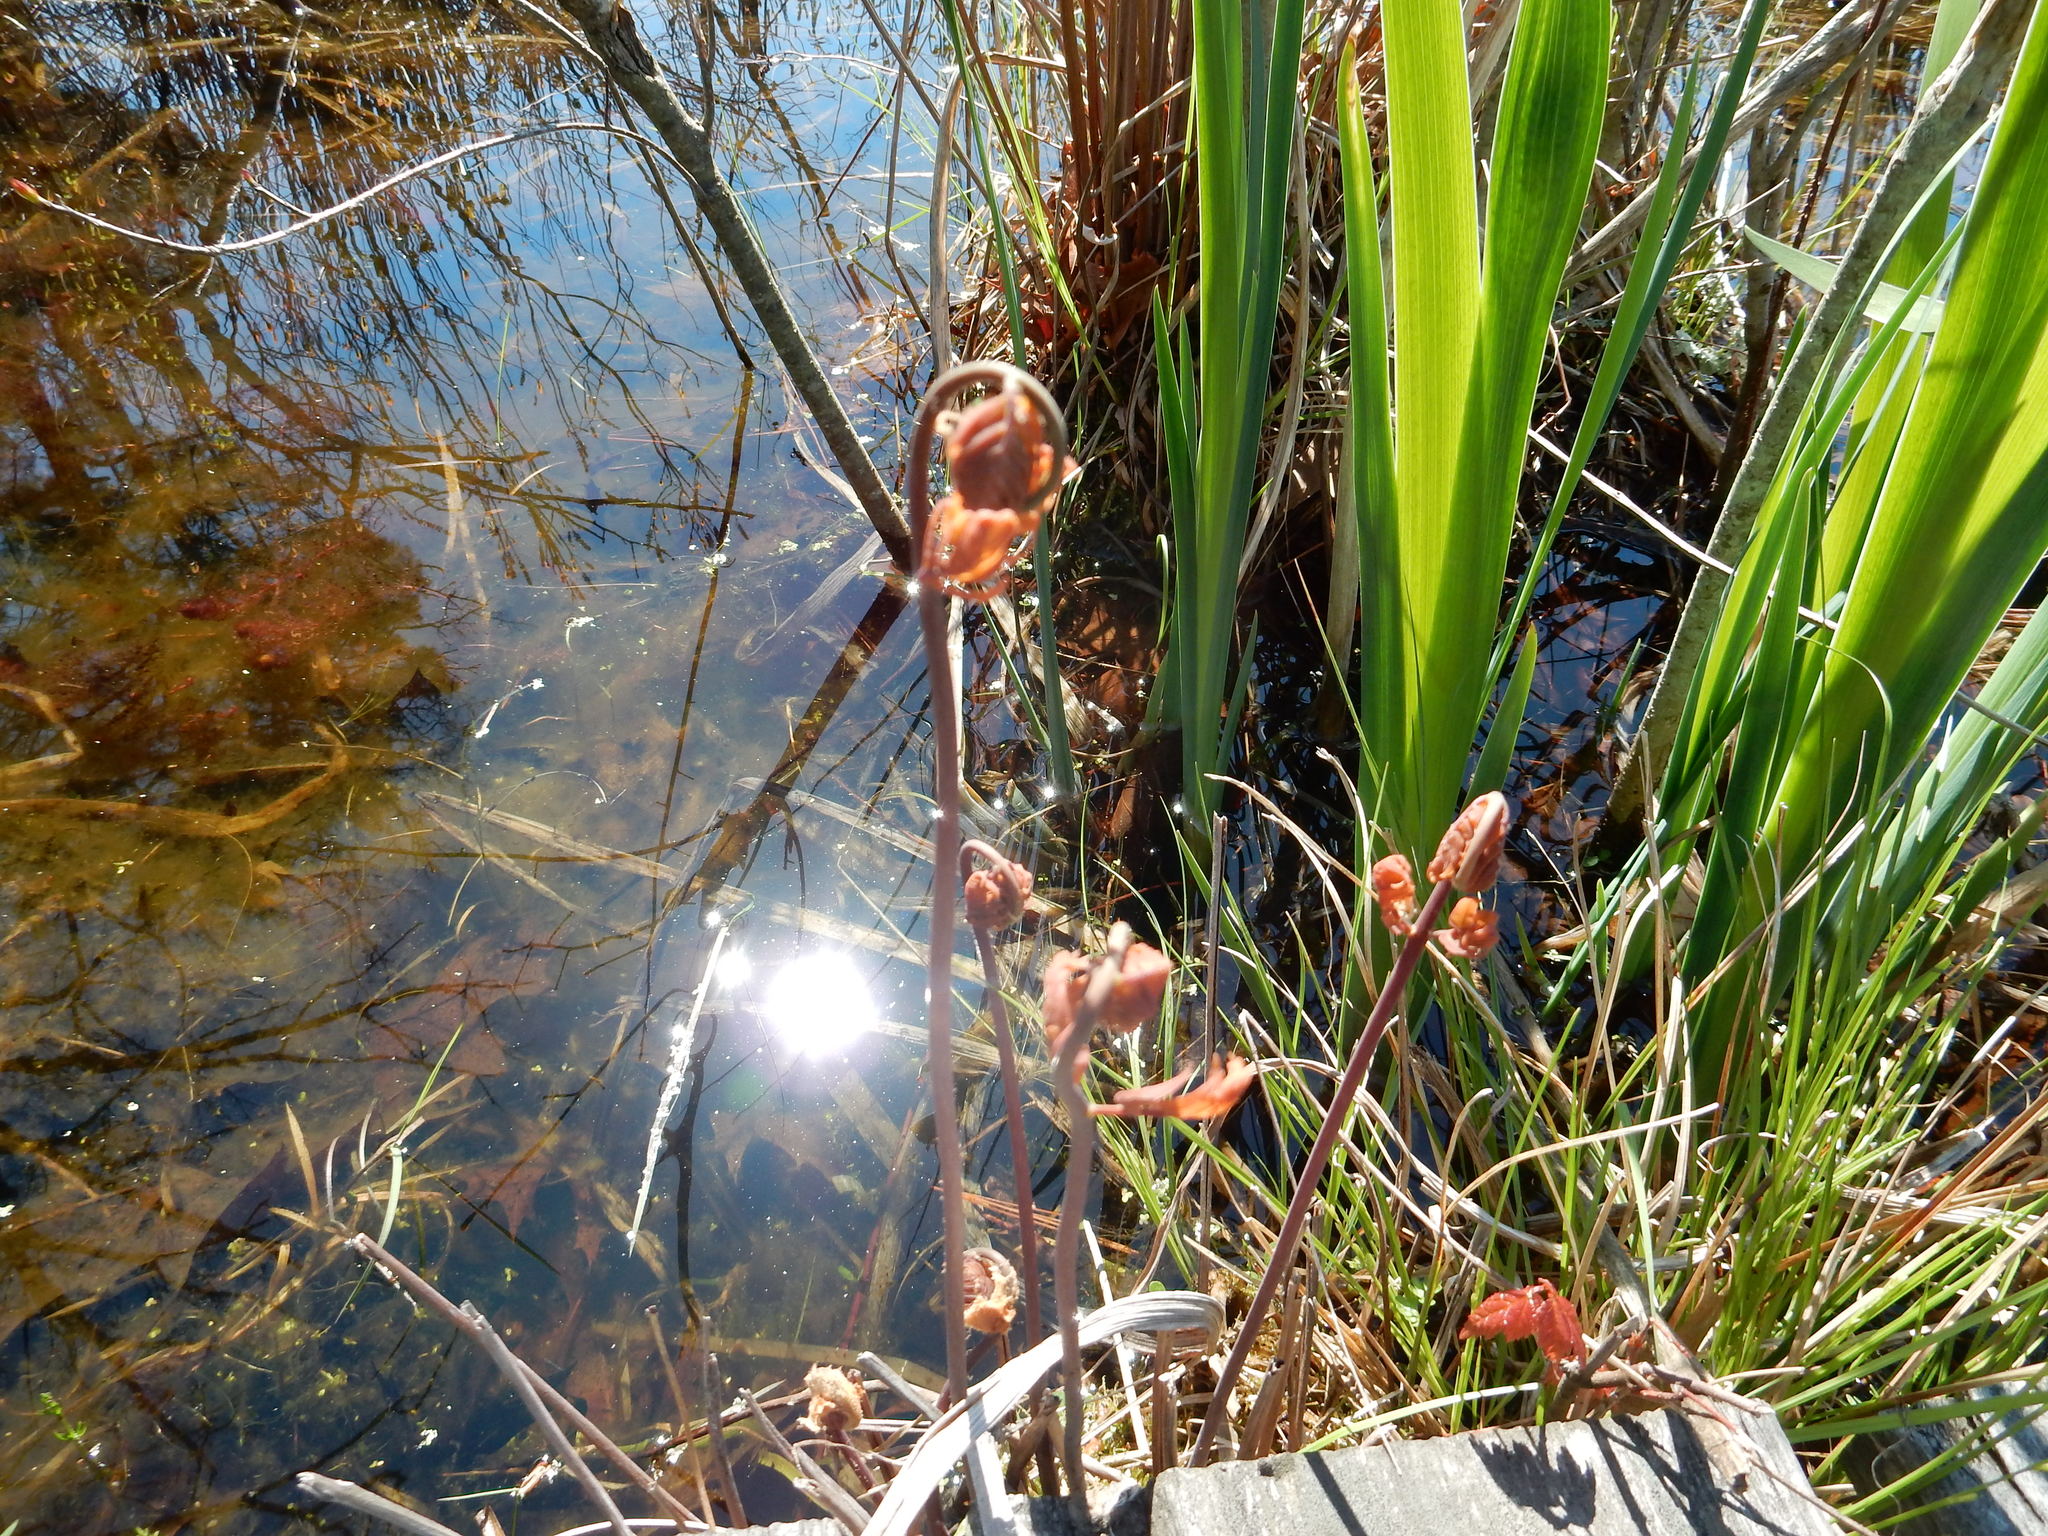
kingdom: Plantae
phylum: Tracheophyta
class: Polypodiopsida
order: Osmundales
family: Osmundaceae
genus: Osmunda
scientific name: Osmunda spectabilis
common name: American royal fern
